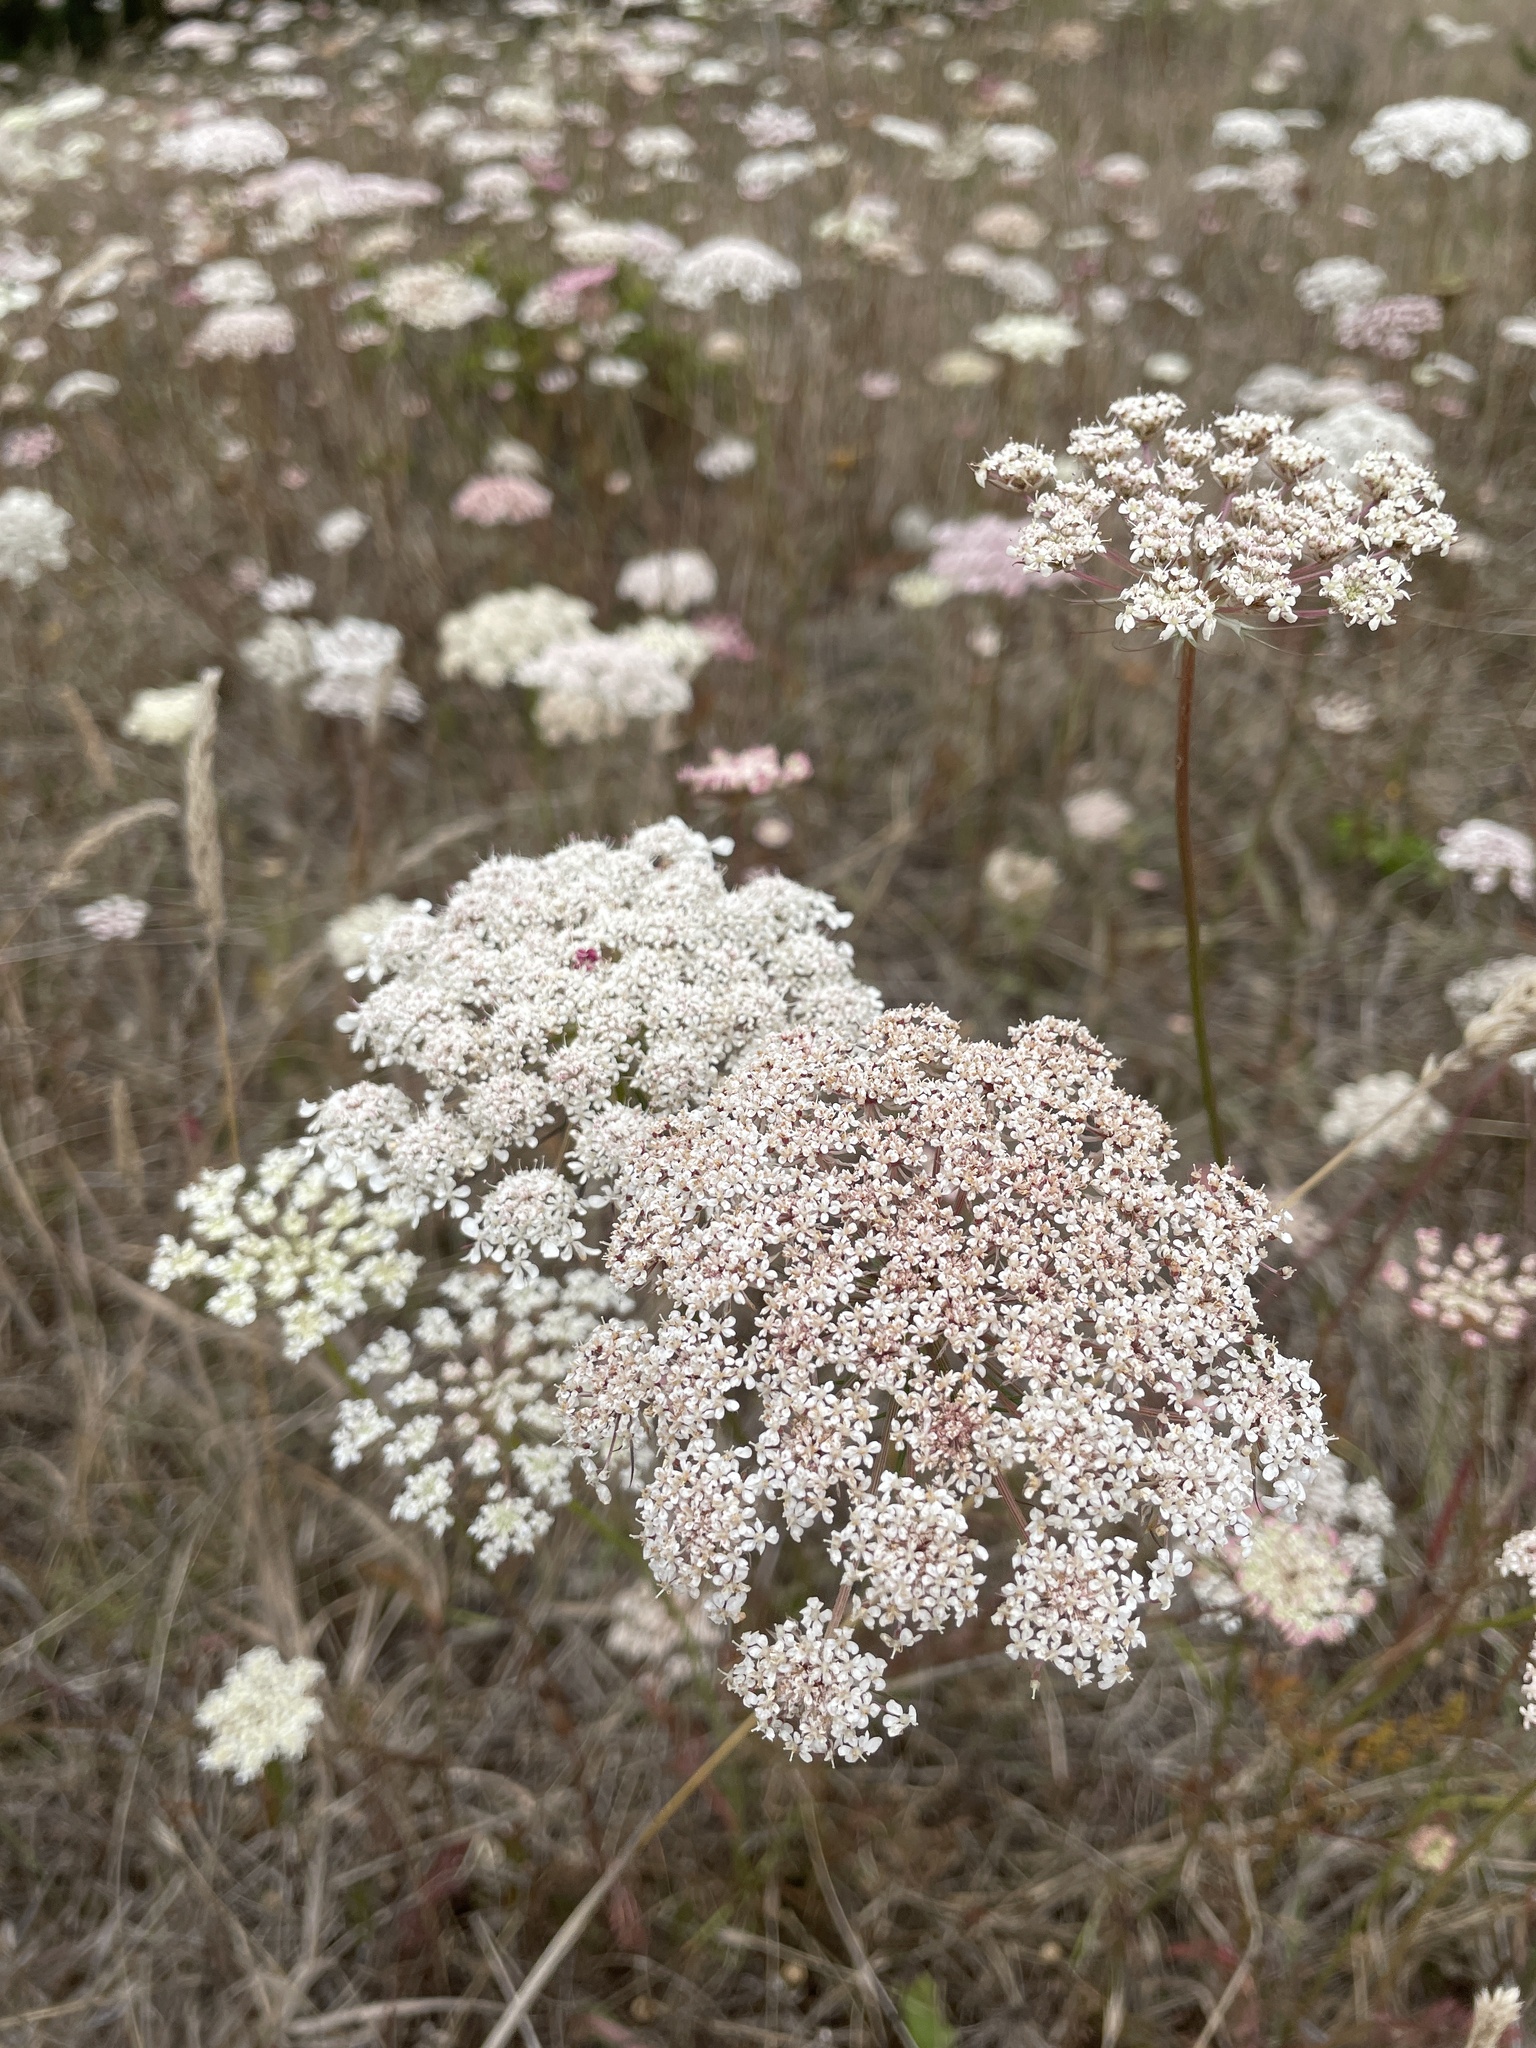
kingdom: Plantae
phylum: Tracheophyta
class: Magnoliopsida
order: Apiales
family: Apiaceae
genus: Daucus
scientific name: Daucus carota
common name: Wild carrot
